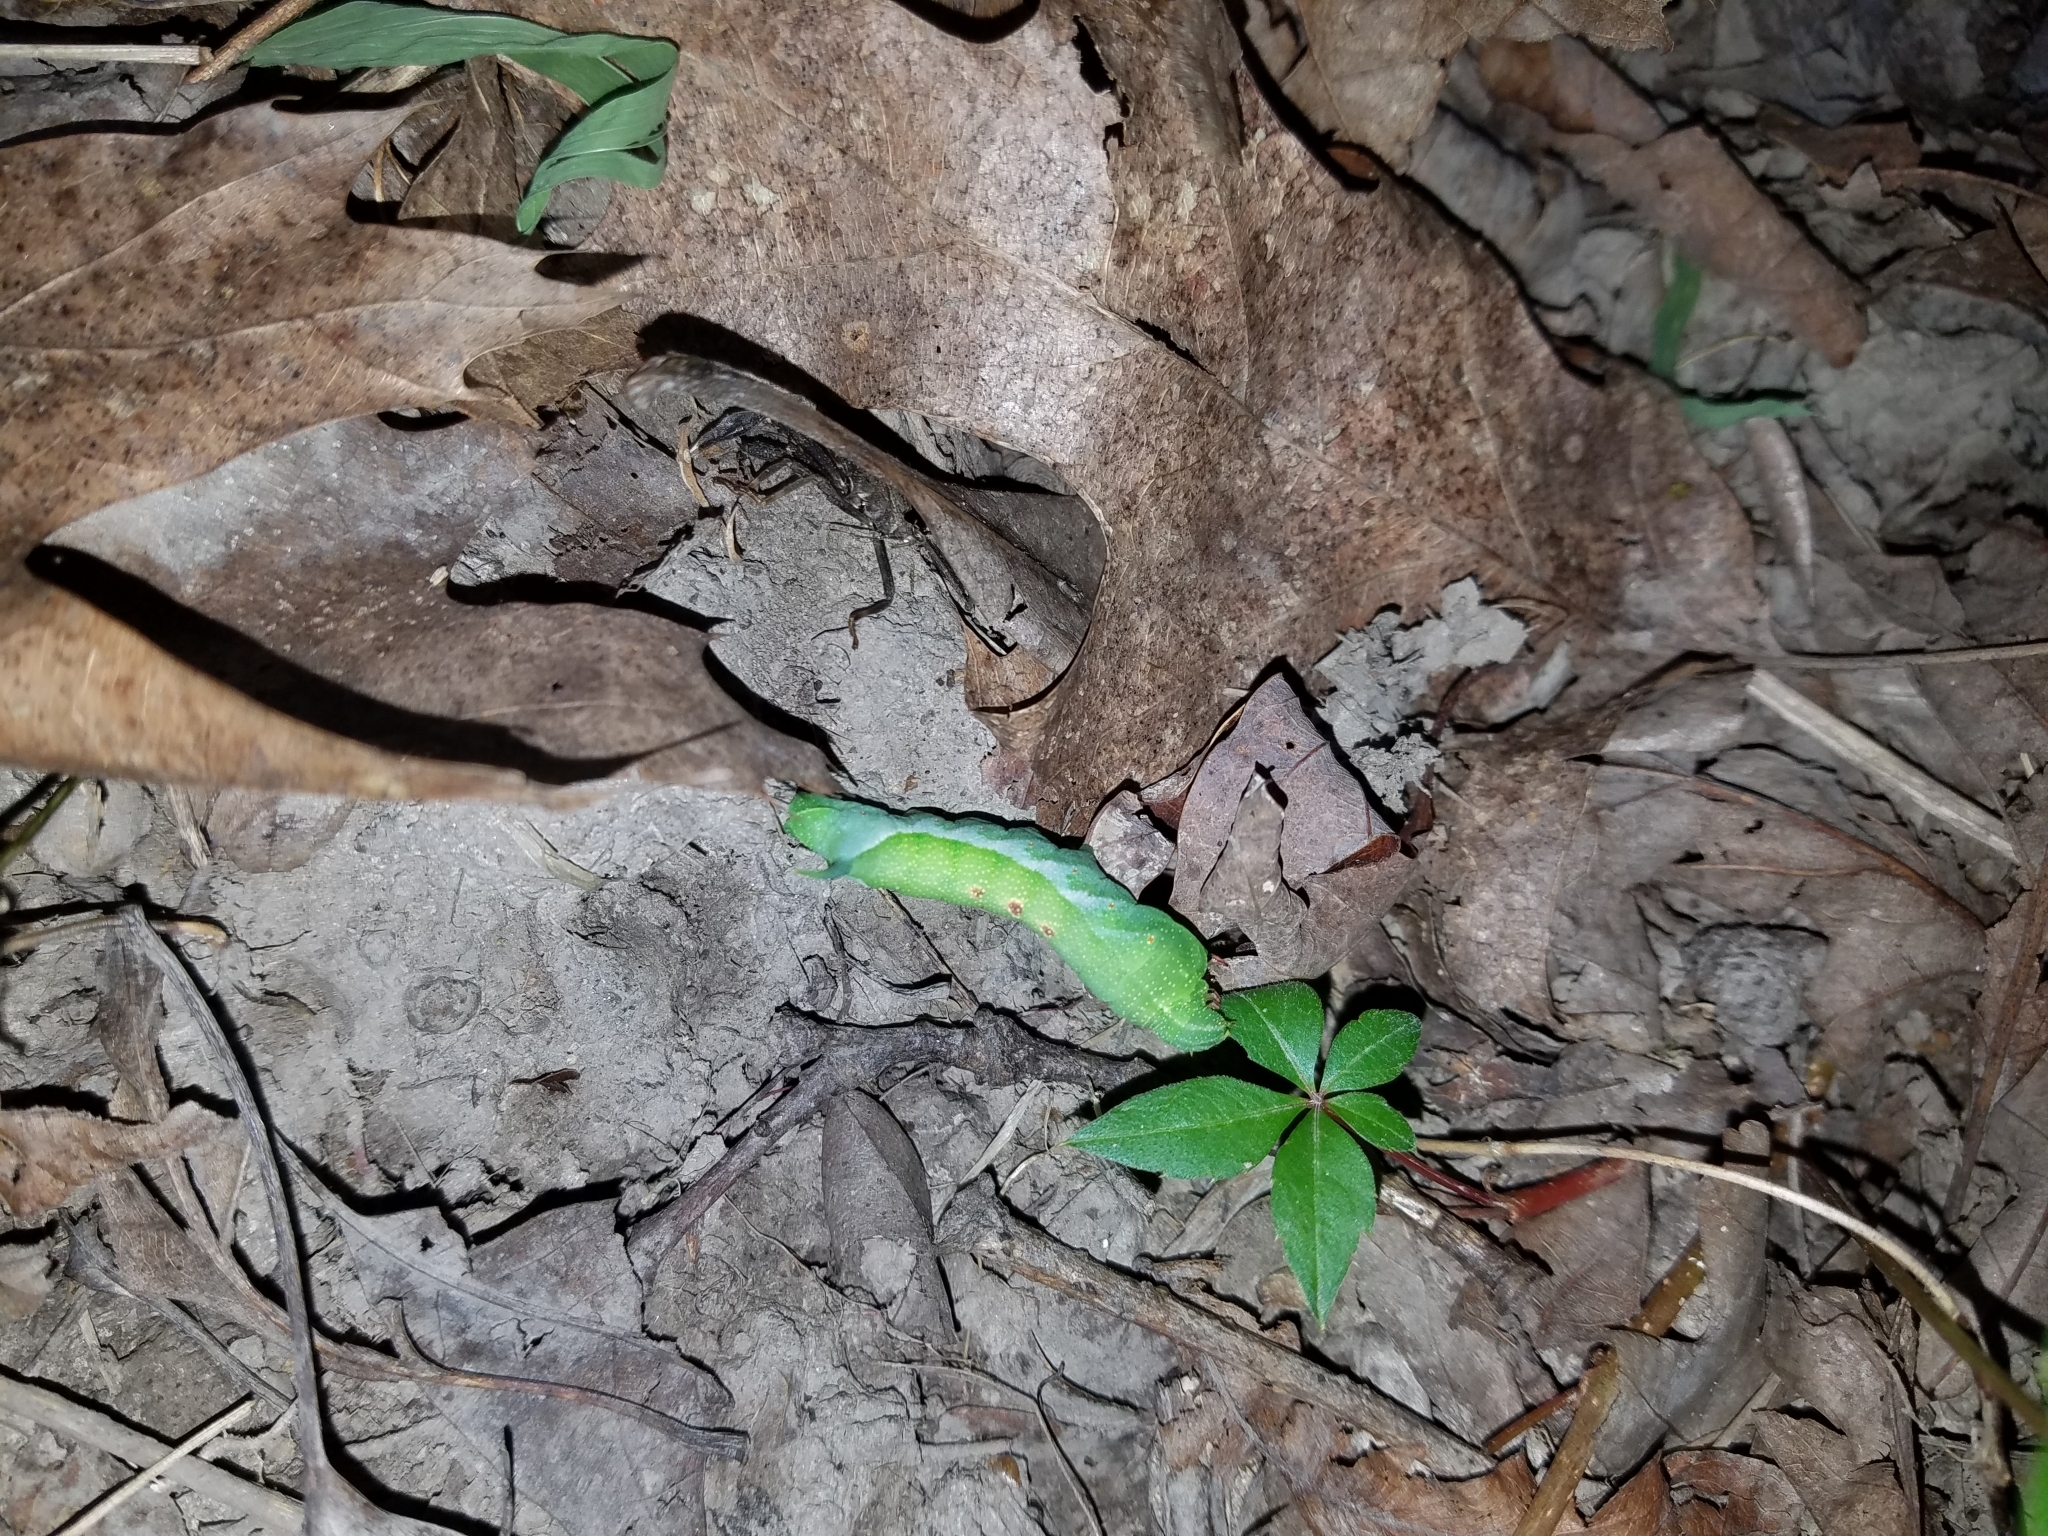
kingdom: Animalia
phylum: Arthropoda
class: Insecta
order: Lepidoptera
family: Sphingidae
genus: Darapsa
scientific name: Darapsa myron
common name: Hog sphinx
